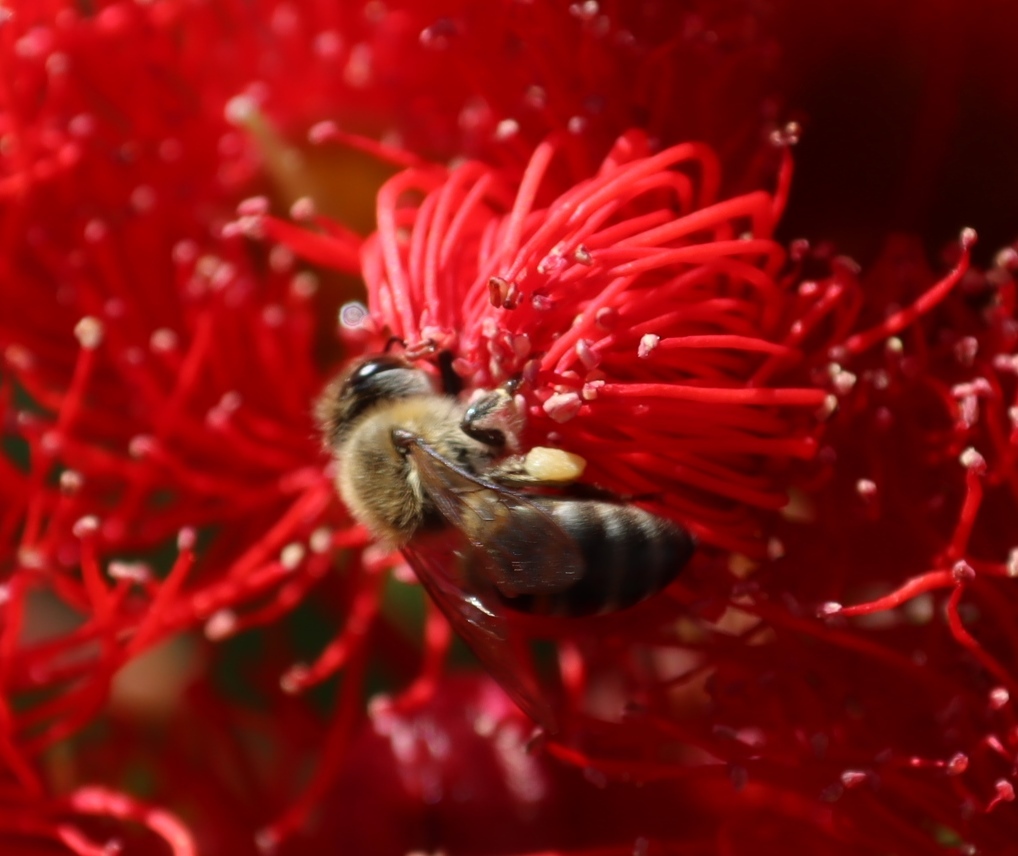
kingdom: Animalia
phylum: Arthropoda
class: Insecta
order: Hymenoptera
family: Apidae
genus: Apis
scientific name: Apis mellifera
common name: Honey bee
